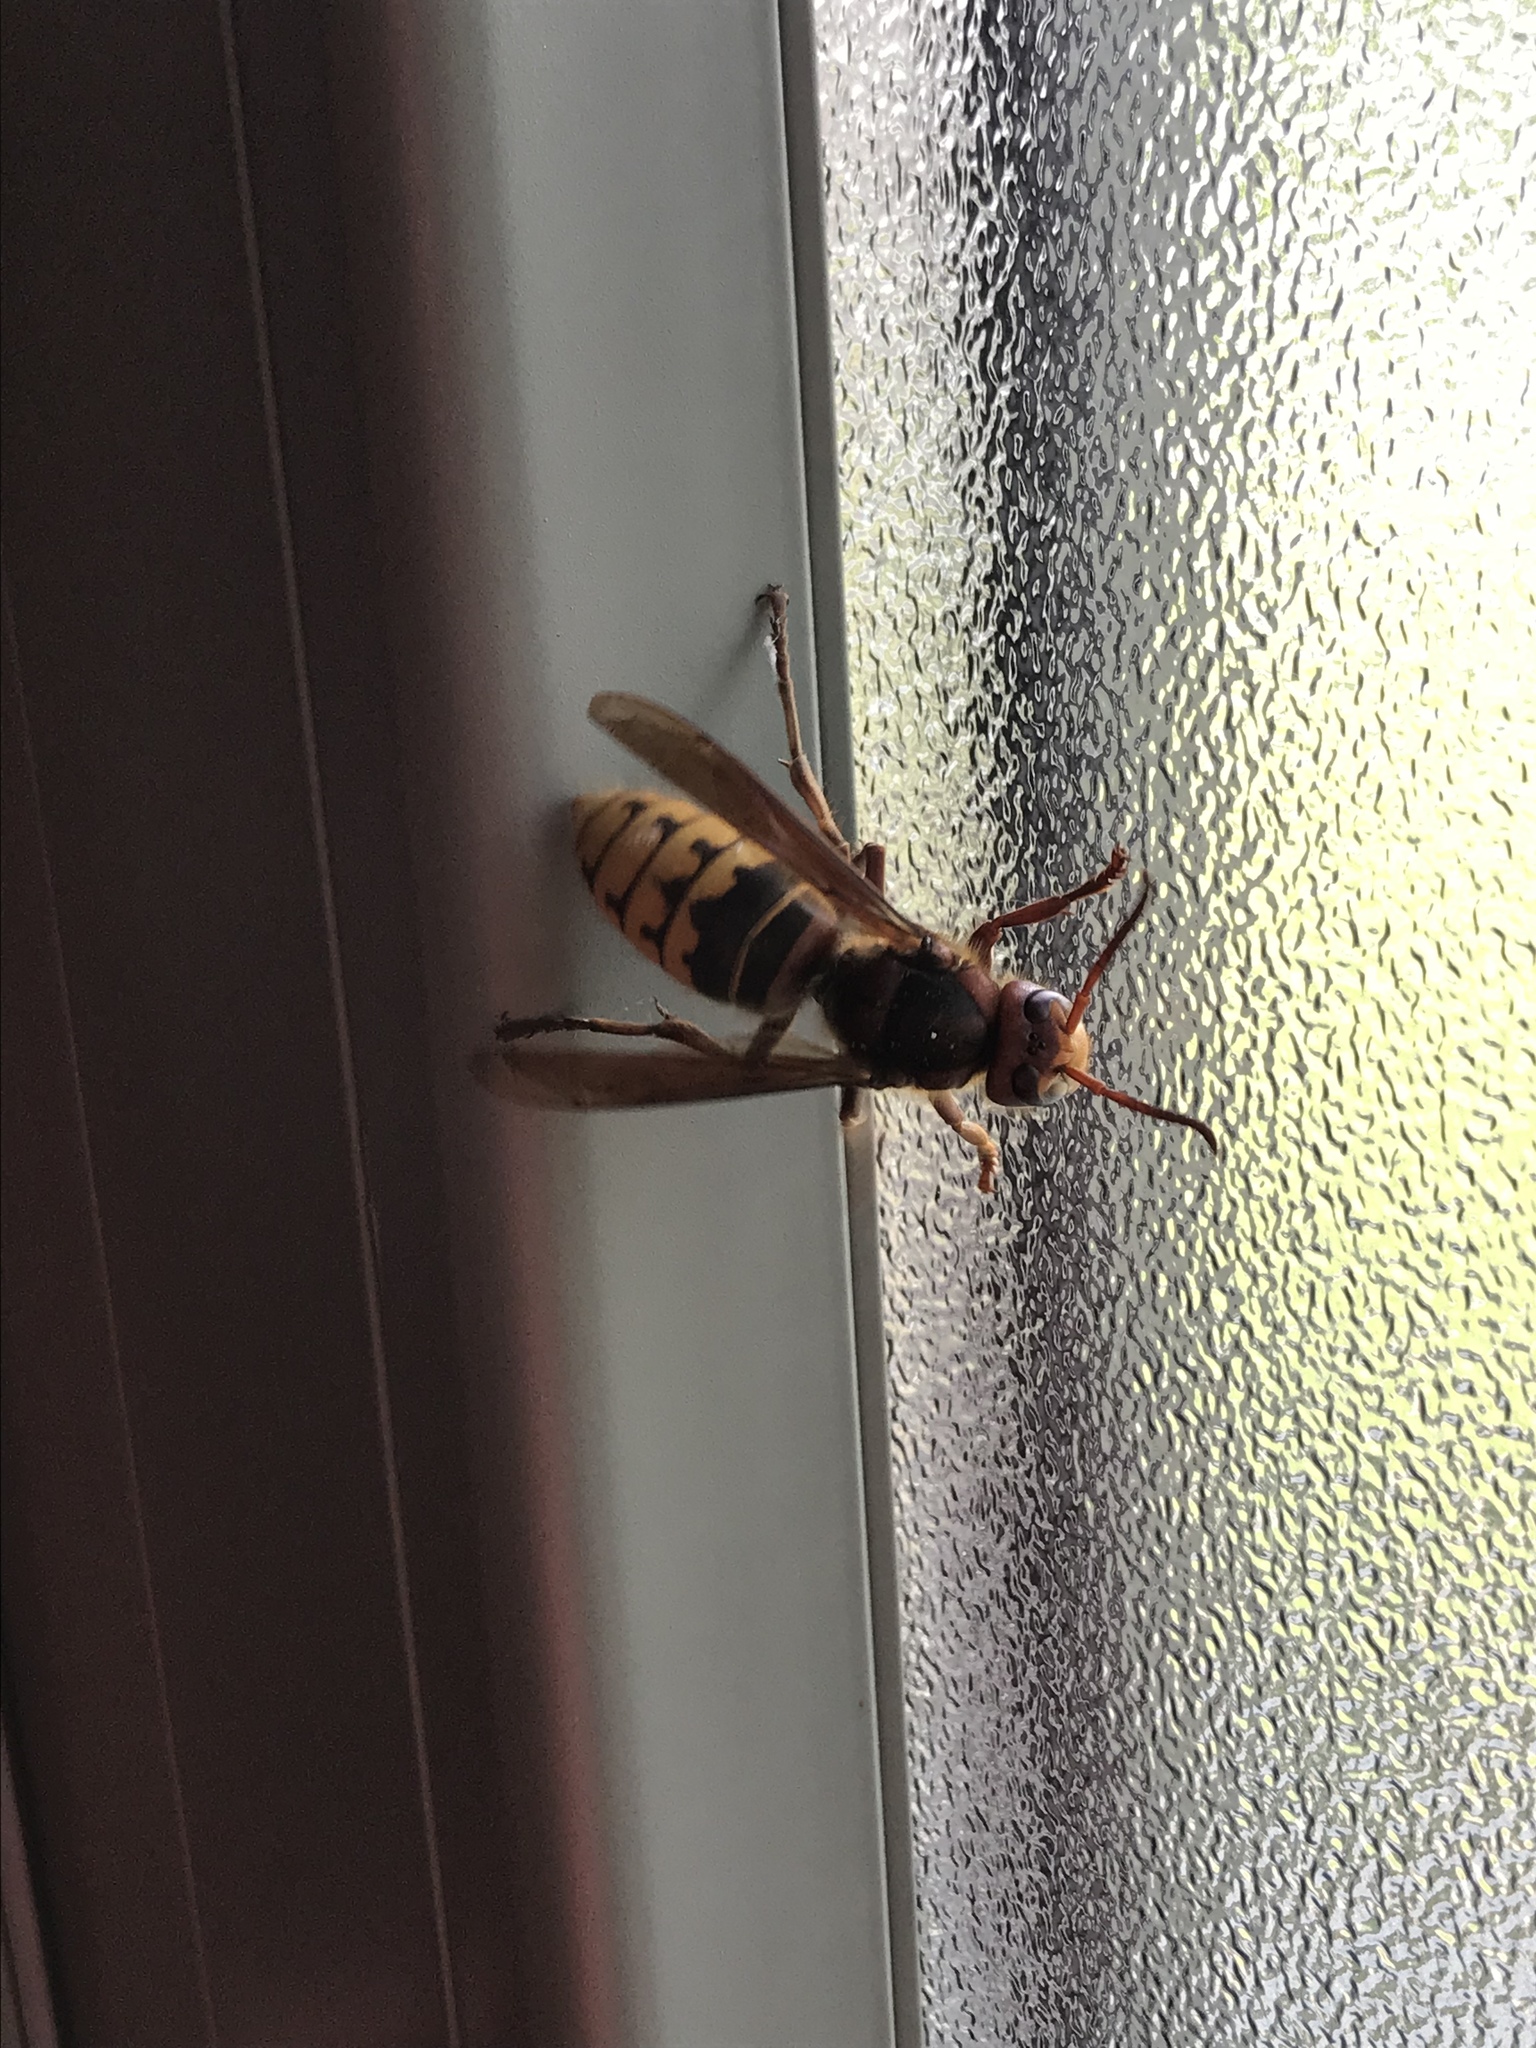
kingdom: Animalia
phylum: Arthropoda
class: Insecta
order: Hymenoptera
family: Vespidae
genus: Vespa
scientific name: Vespa crabro
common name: Hornet
